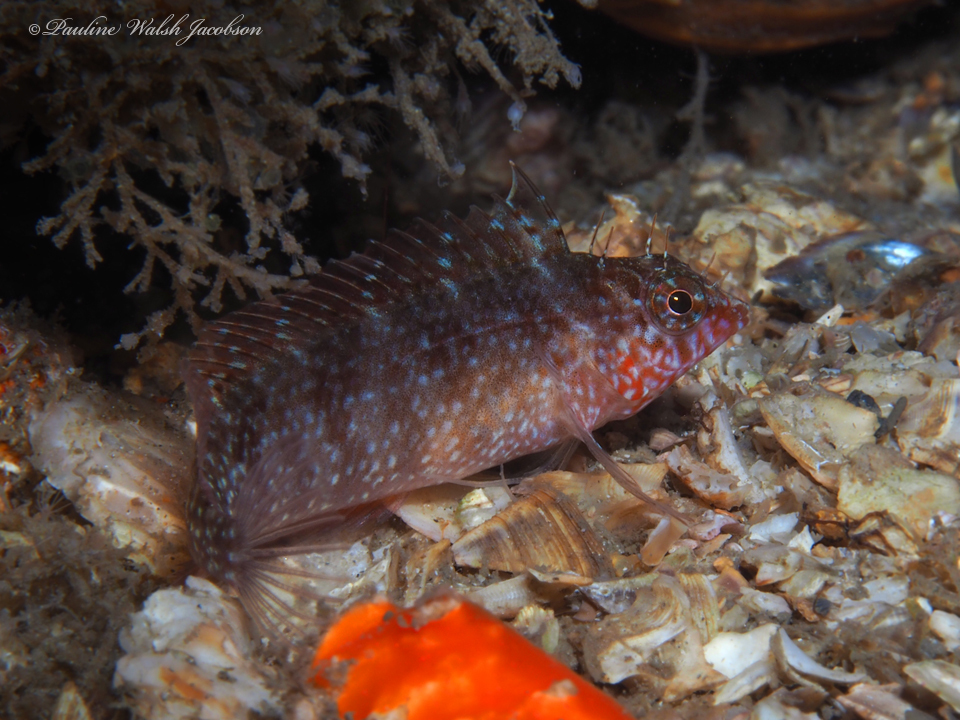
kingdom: Animalia
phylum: Chordata
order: Perciformes
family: Labrisomidae
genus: Malacoctenus
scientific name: Malacoctenus macropus
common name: Rosy blenny
